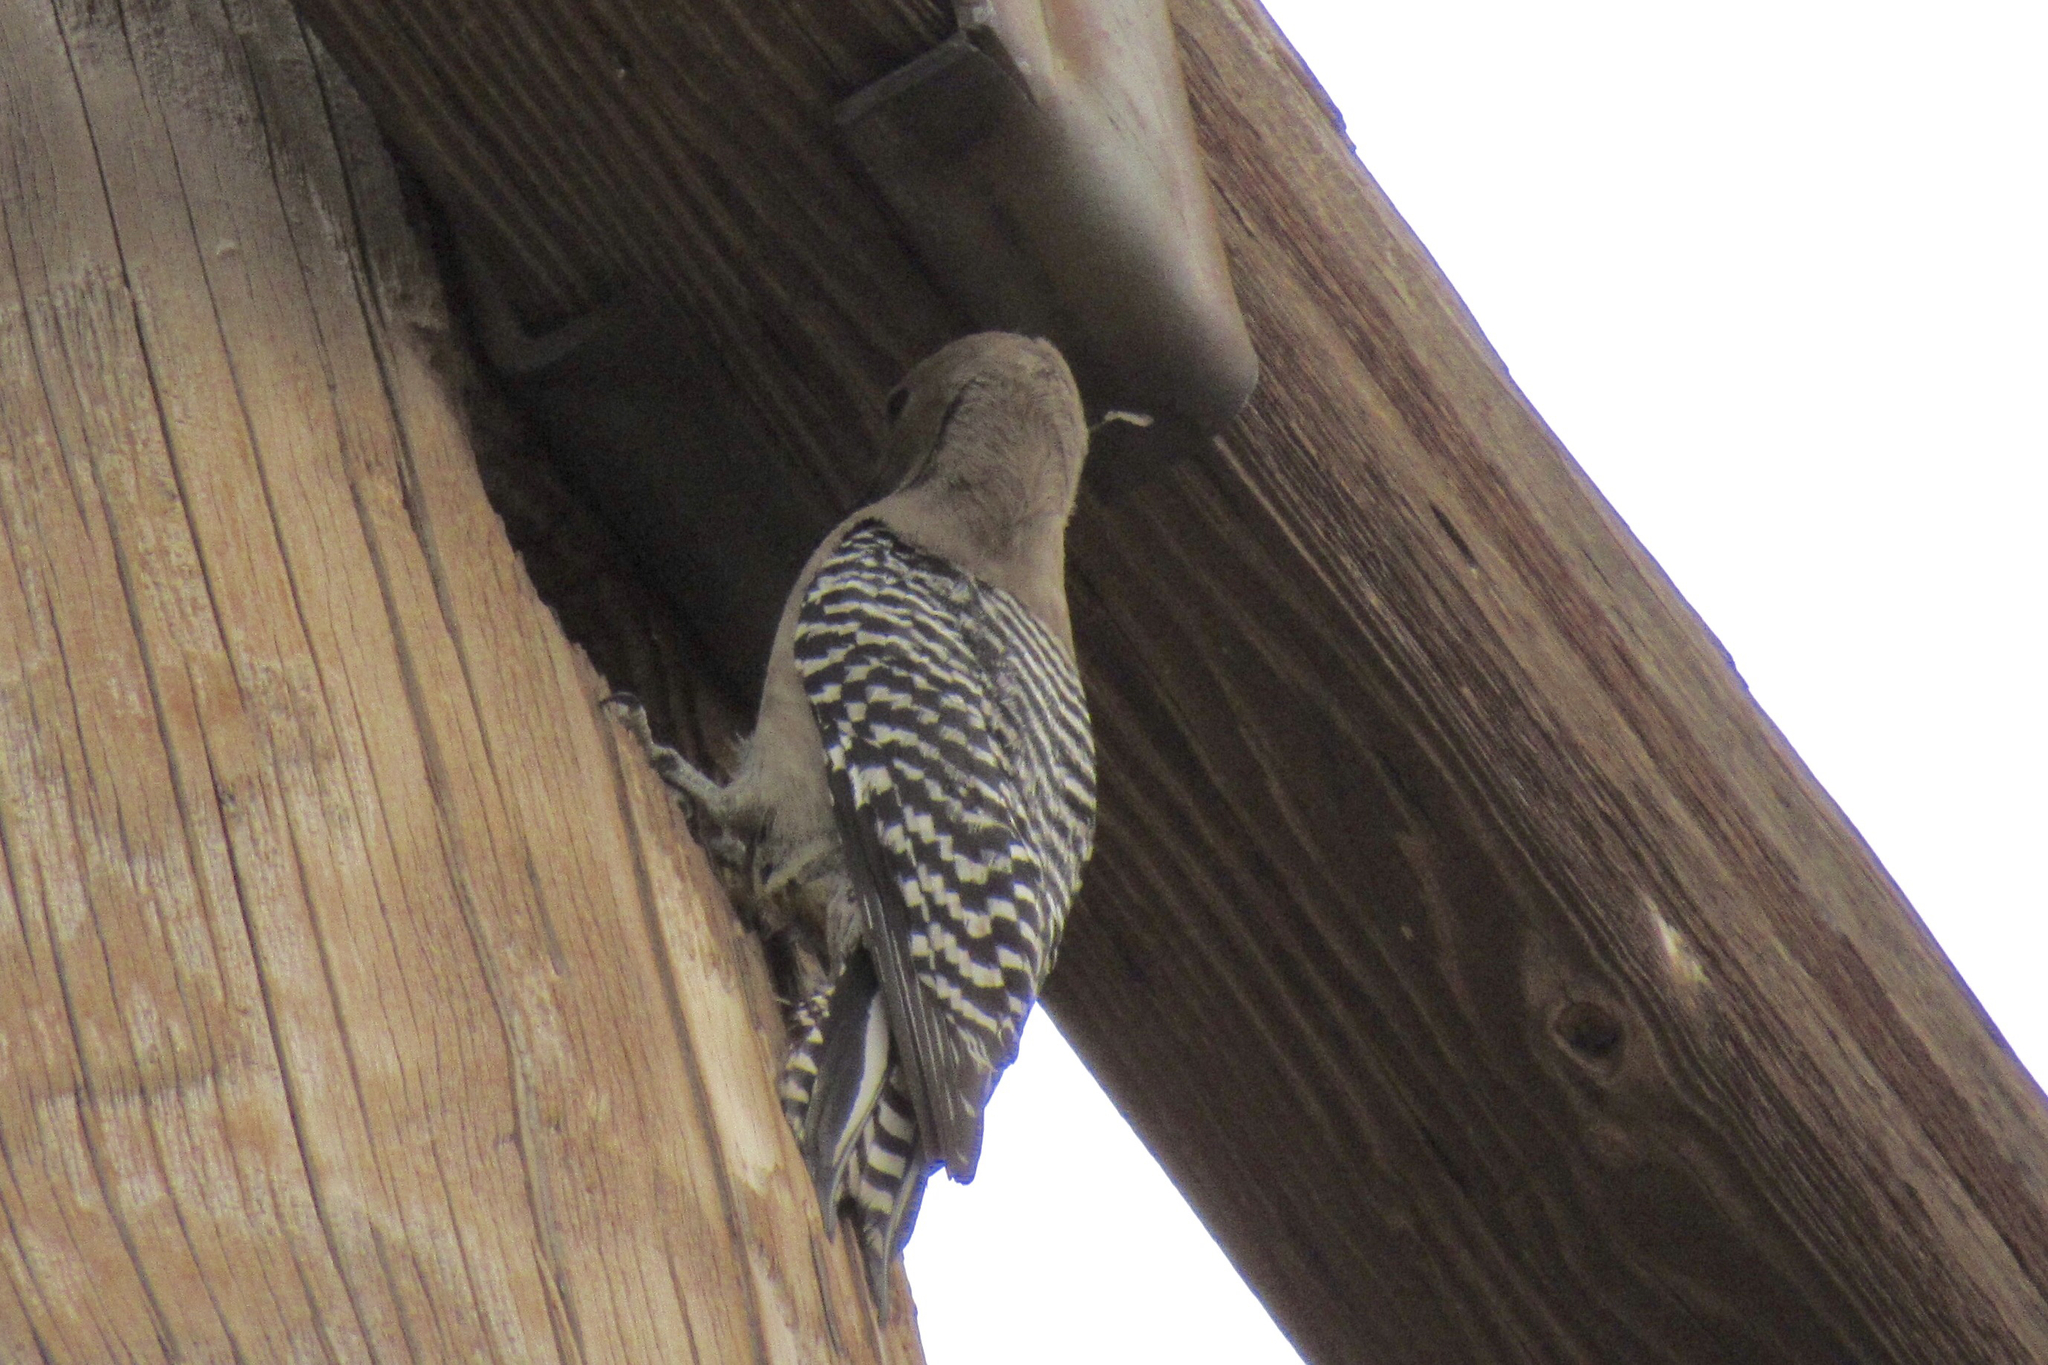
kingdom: Animalia
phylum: Chordata
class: Aves
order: Piciformes
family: Picidae
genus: Melanerpes
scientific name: Melanerpes uropygialis
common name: Gila woodpecker
